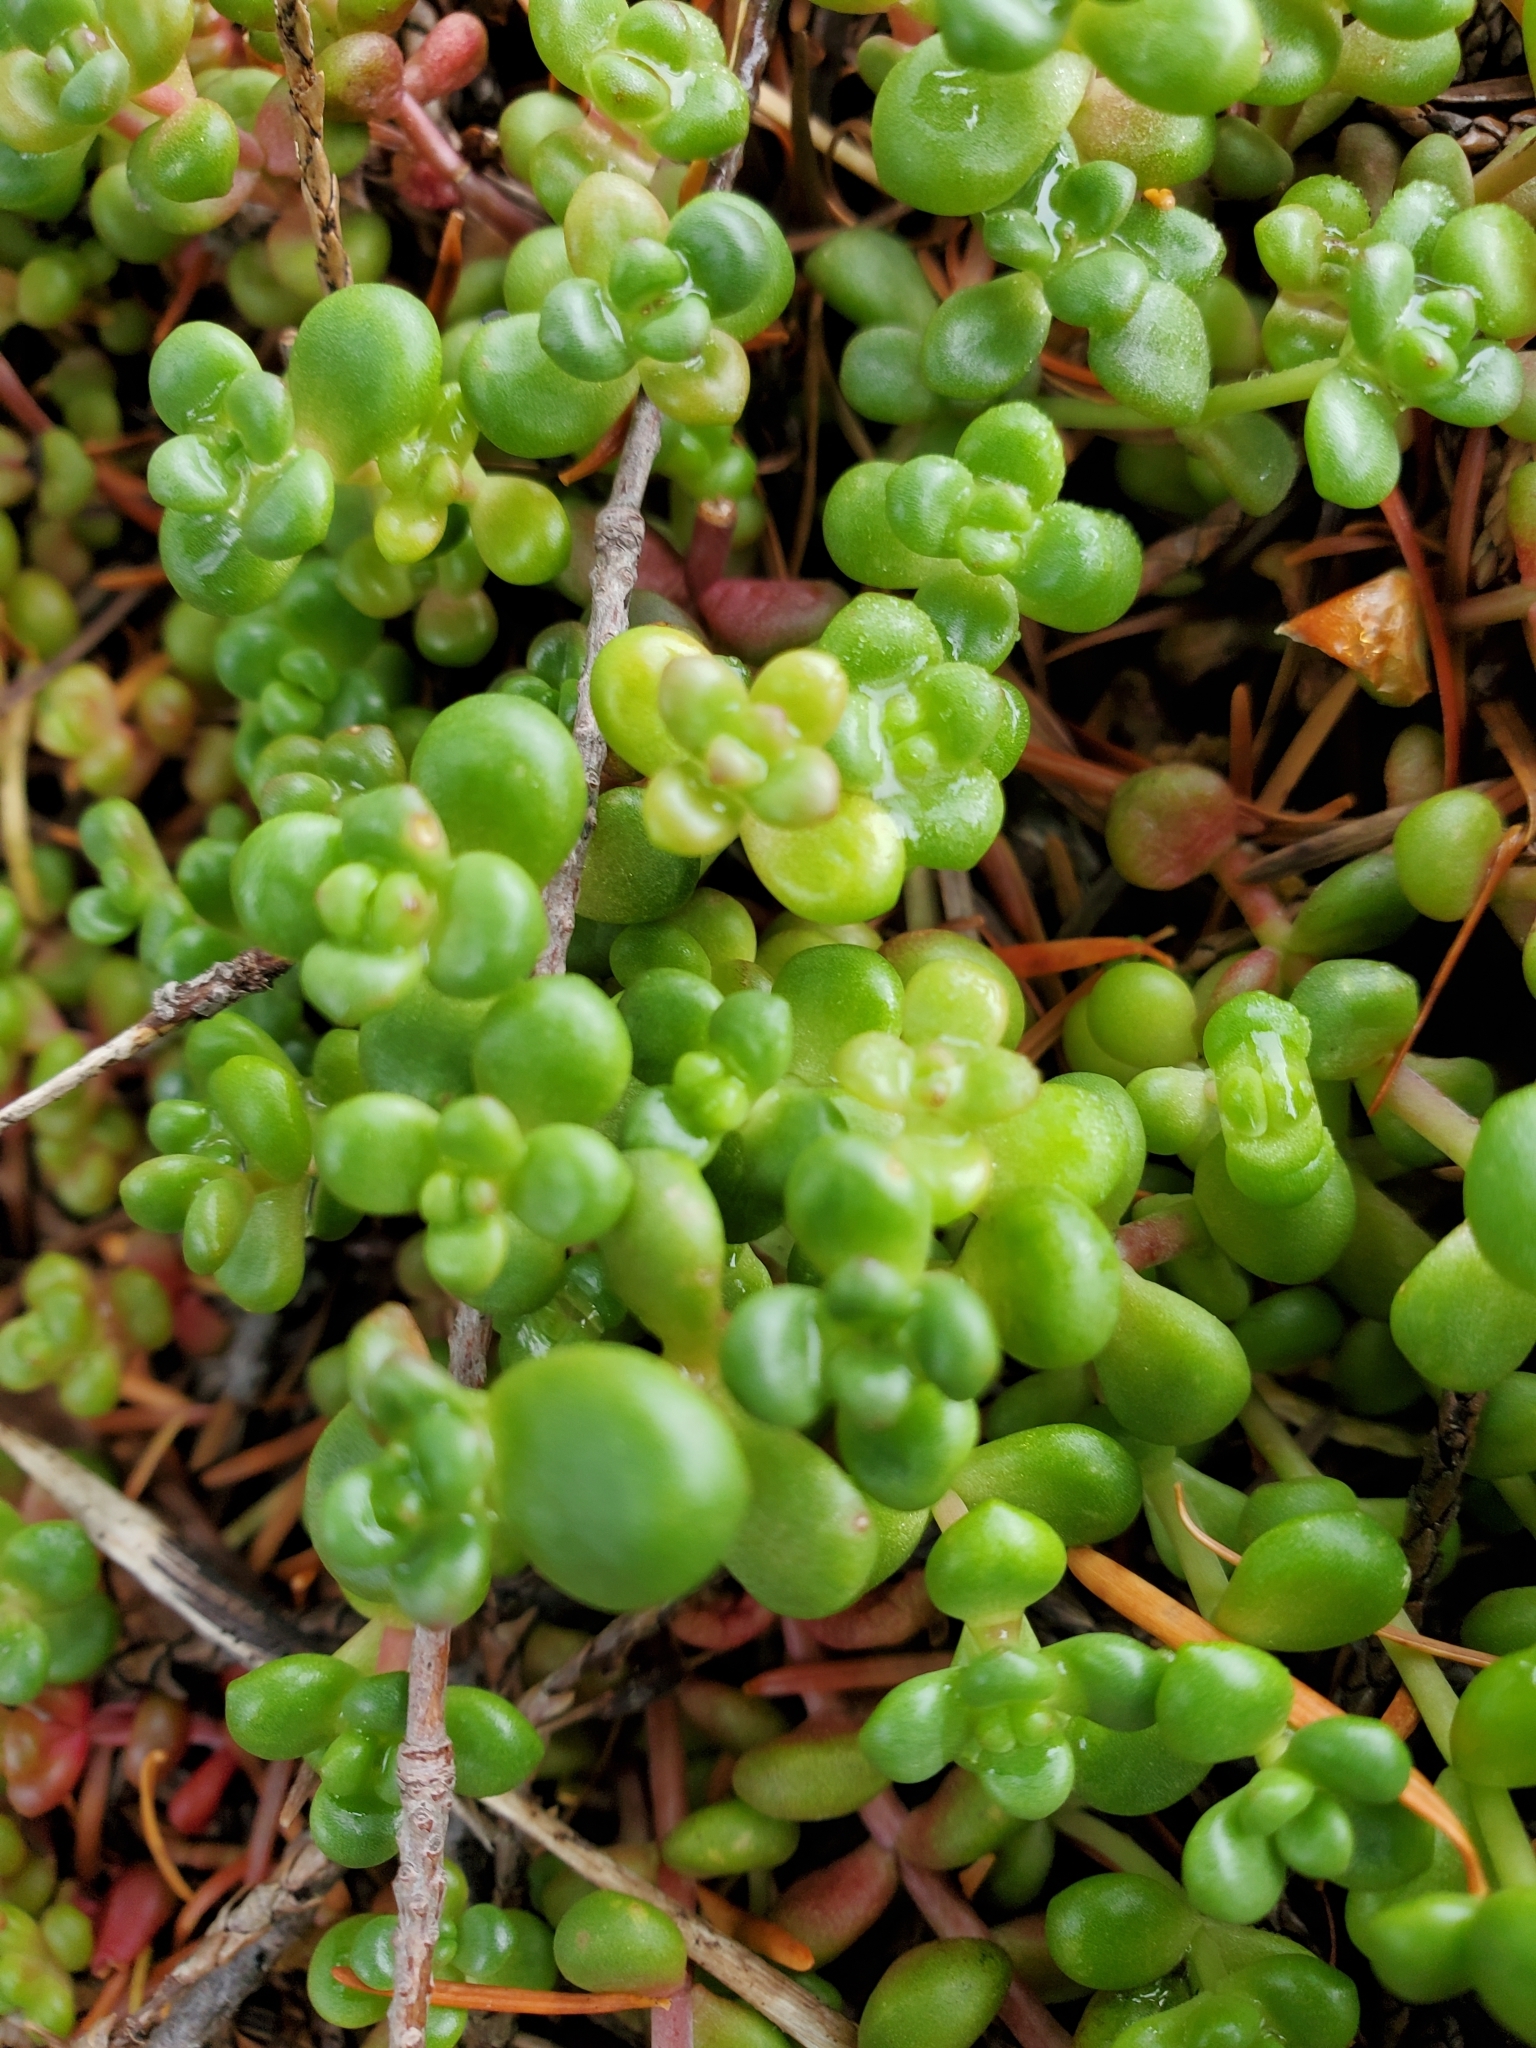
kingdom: Plantae
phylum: Tracheophyta
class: Magnoliopsida
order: Saxifragales
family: Crassulaceae
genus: Sedum
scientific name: Sedum divergens
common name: Cascade stonecrop
